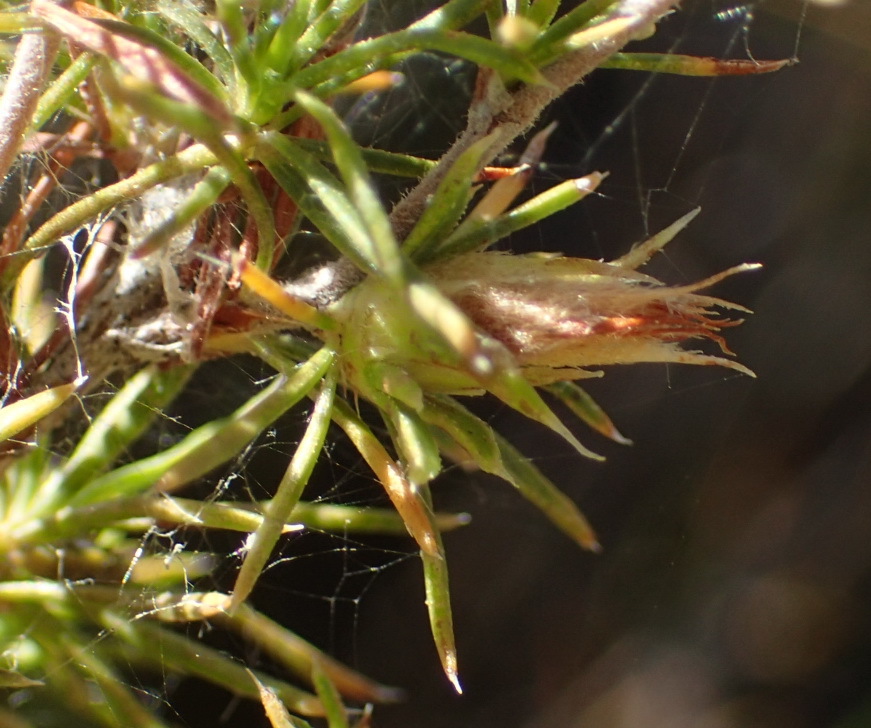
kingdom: Plantae
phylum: Tracheophyta
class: Magnoliopsida
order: Rosales
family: Rosaceae
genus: Cliffortia
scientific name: Cliffortia tuberculata
